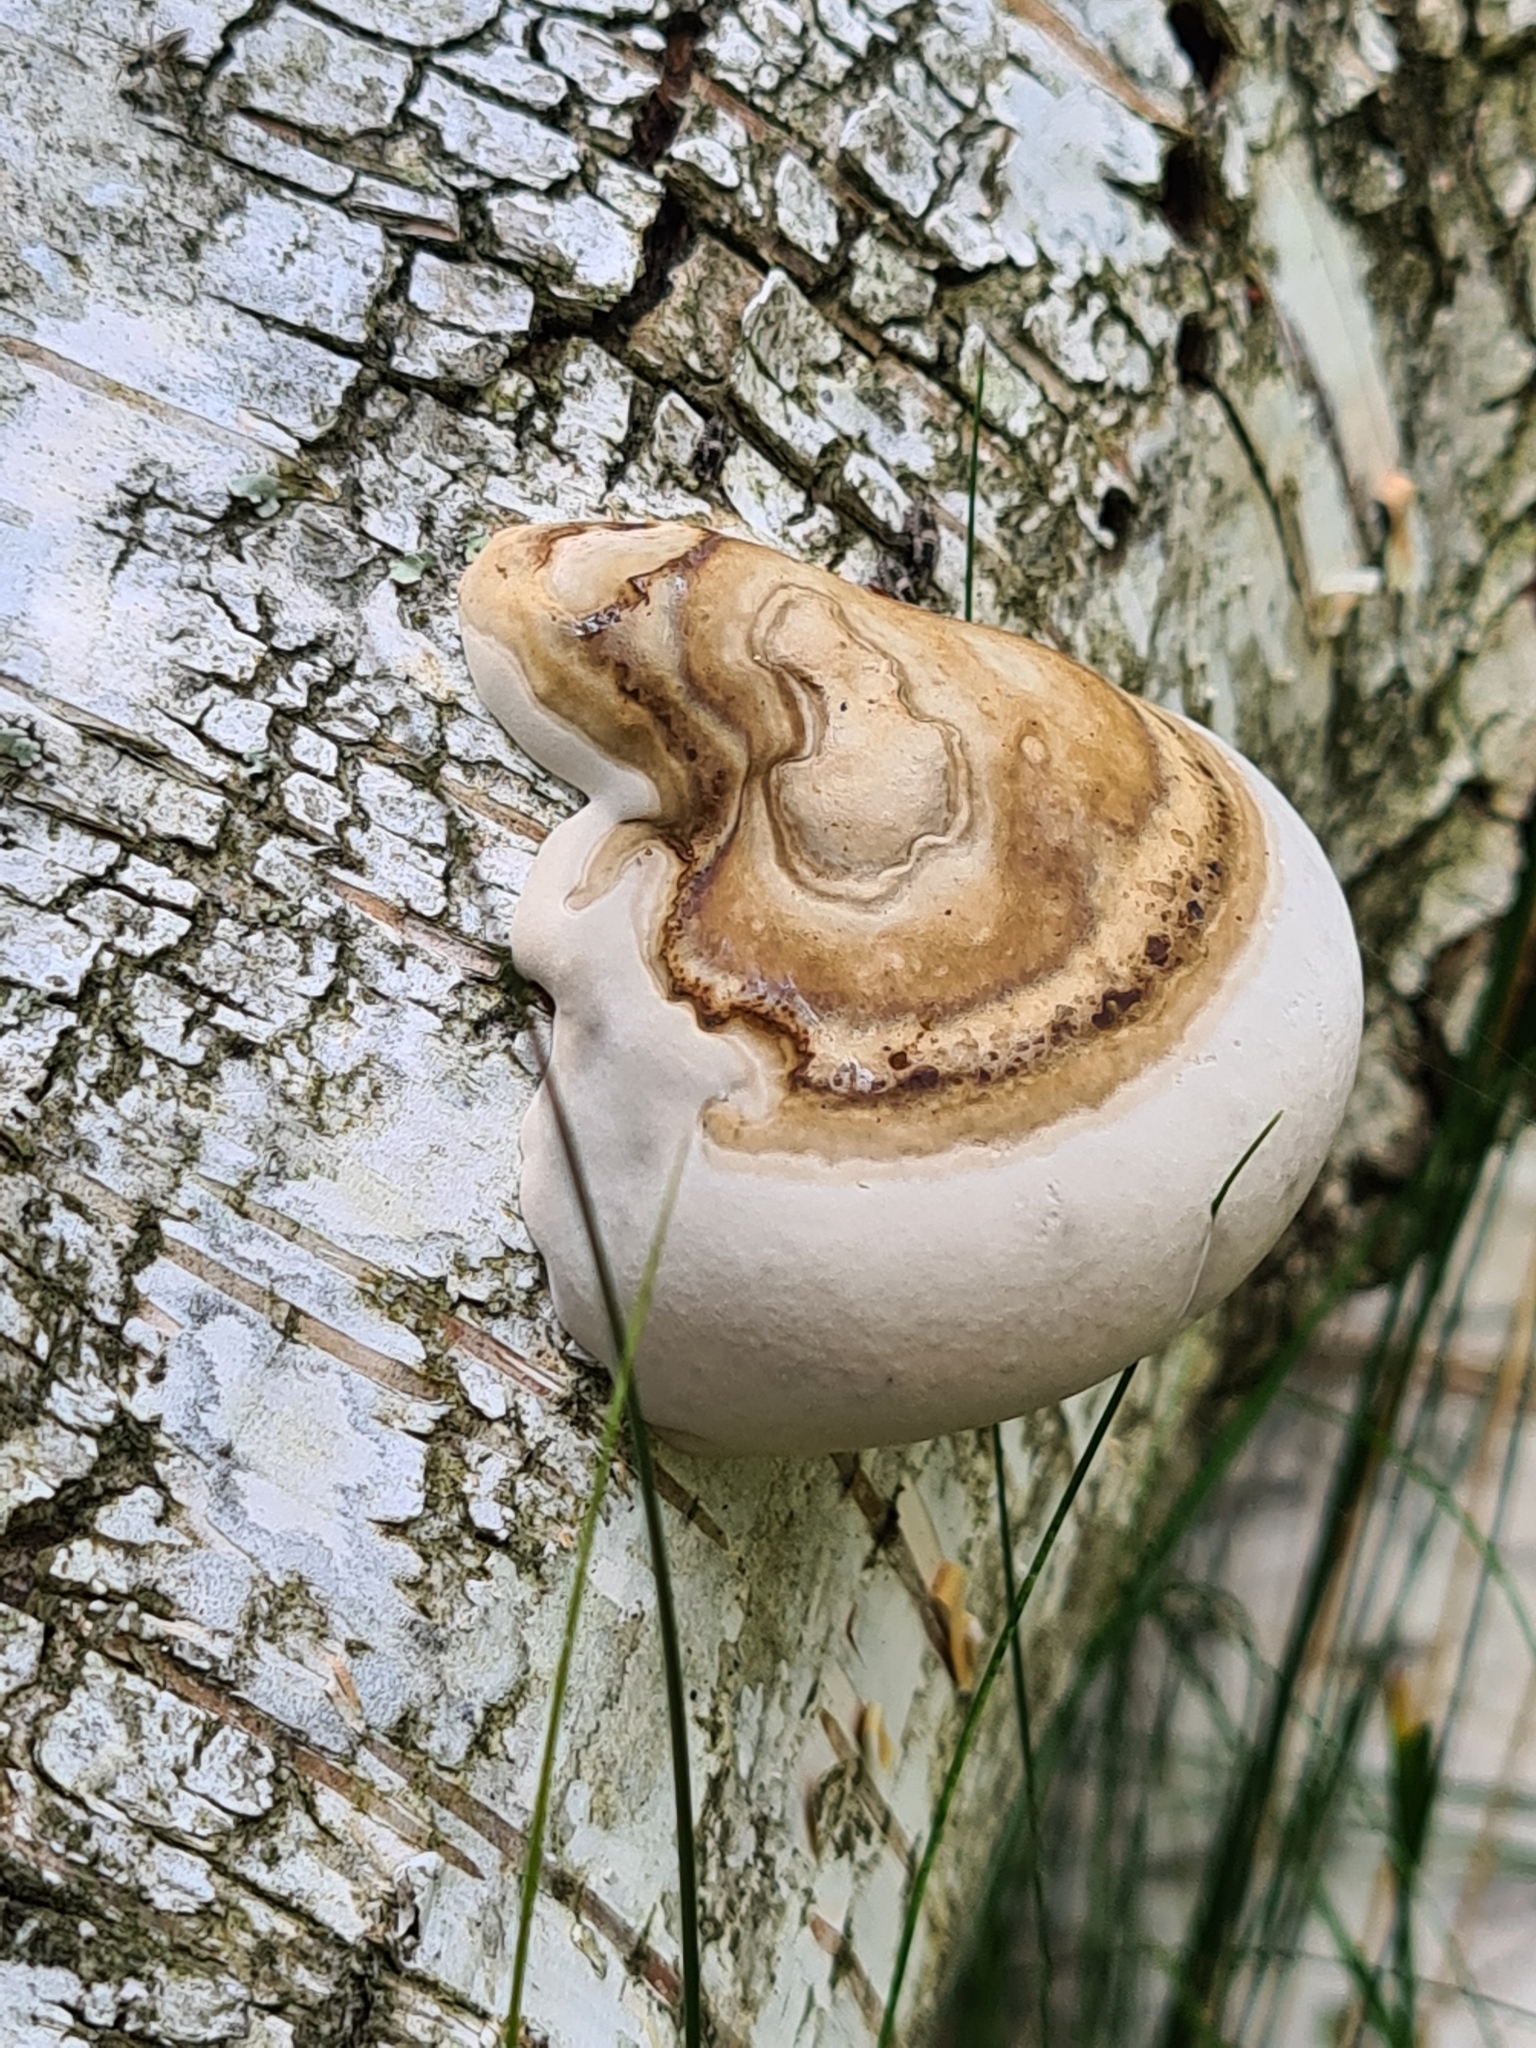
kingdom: Fungi
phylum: Basidiomycota
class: Agaricomycetes
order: Polyporales
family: Polyporaceae
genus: Fomes
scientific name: Fomes fomentarius
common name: Hoof fungus
